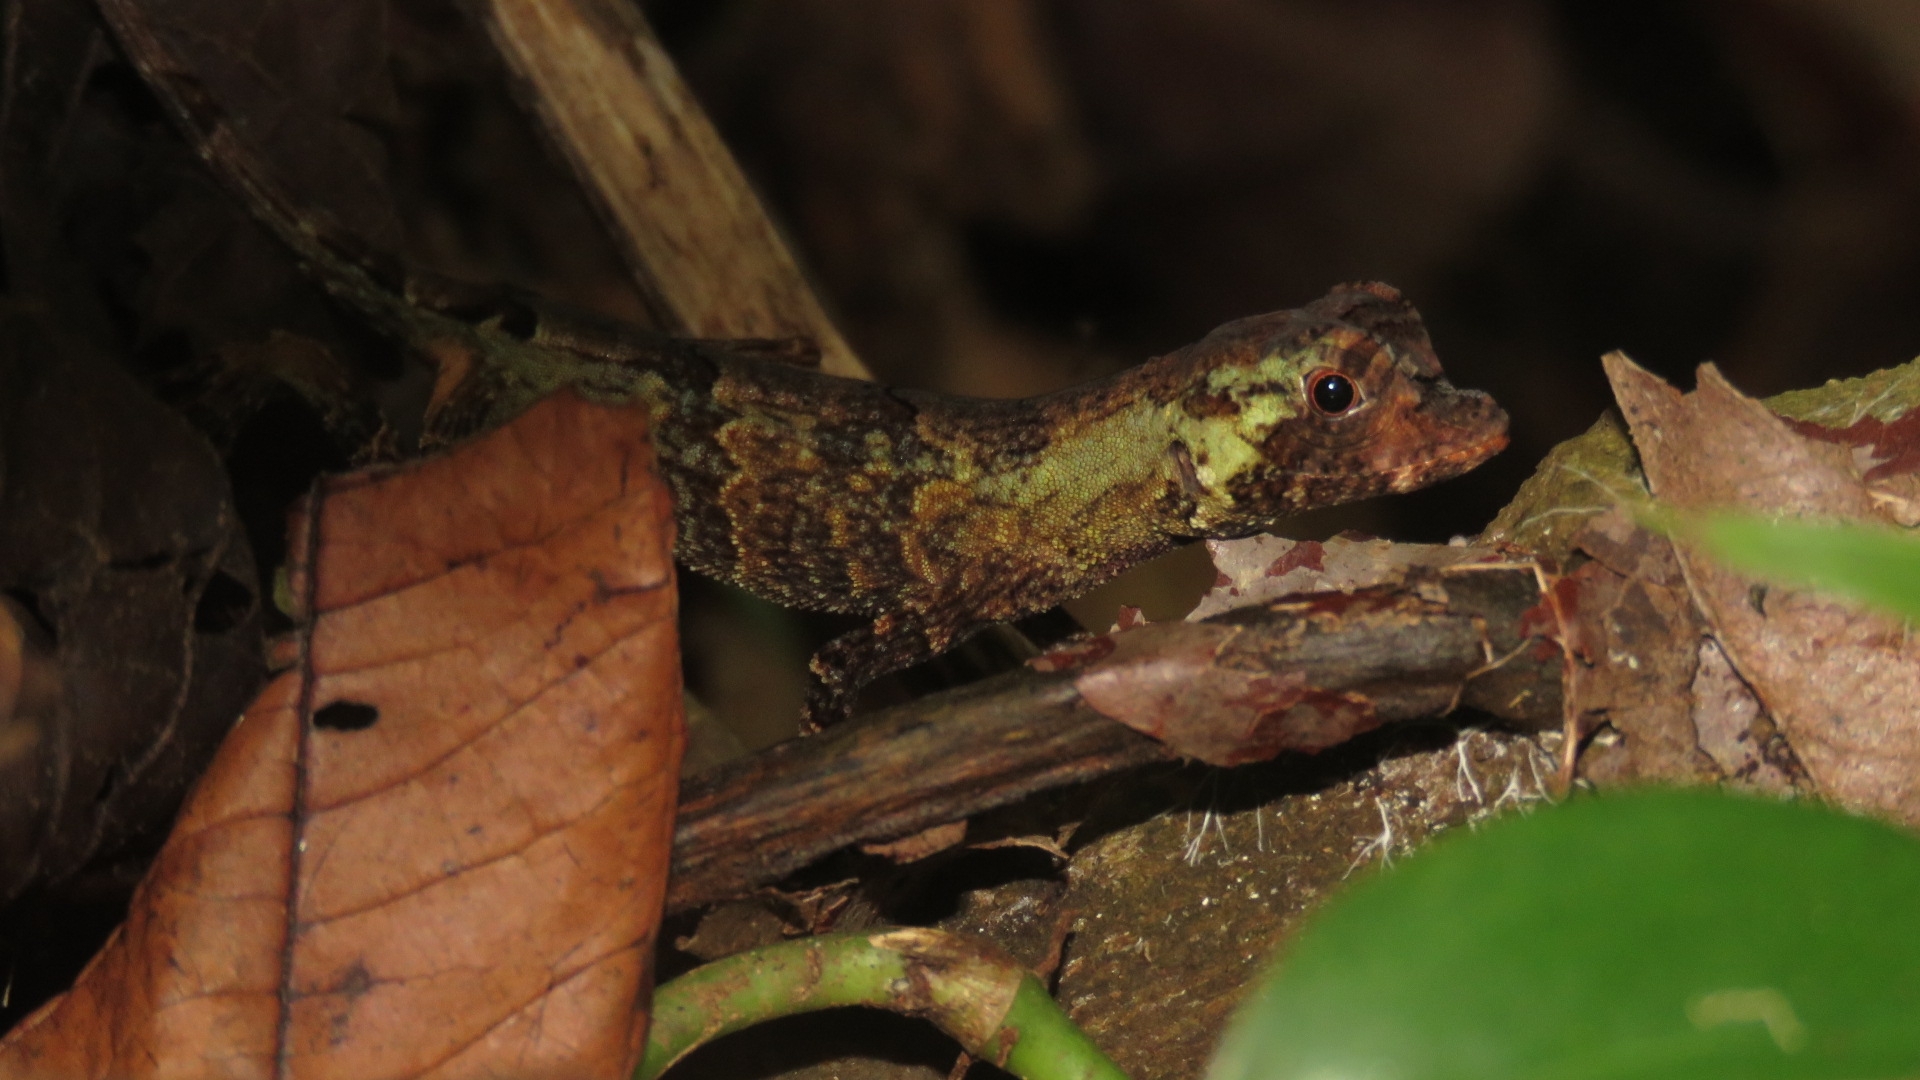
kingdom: Animalia
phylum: Chordata
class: Squamata
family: Dactyloidae
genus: Anolis
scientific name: Anolis capito
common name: Bighead anole
